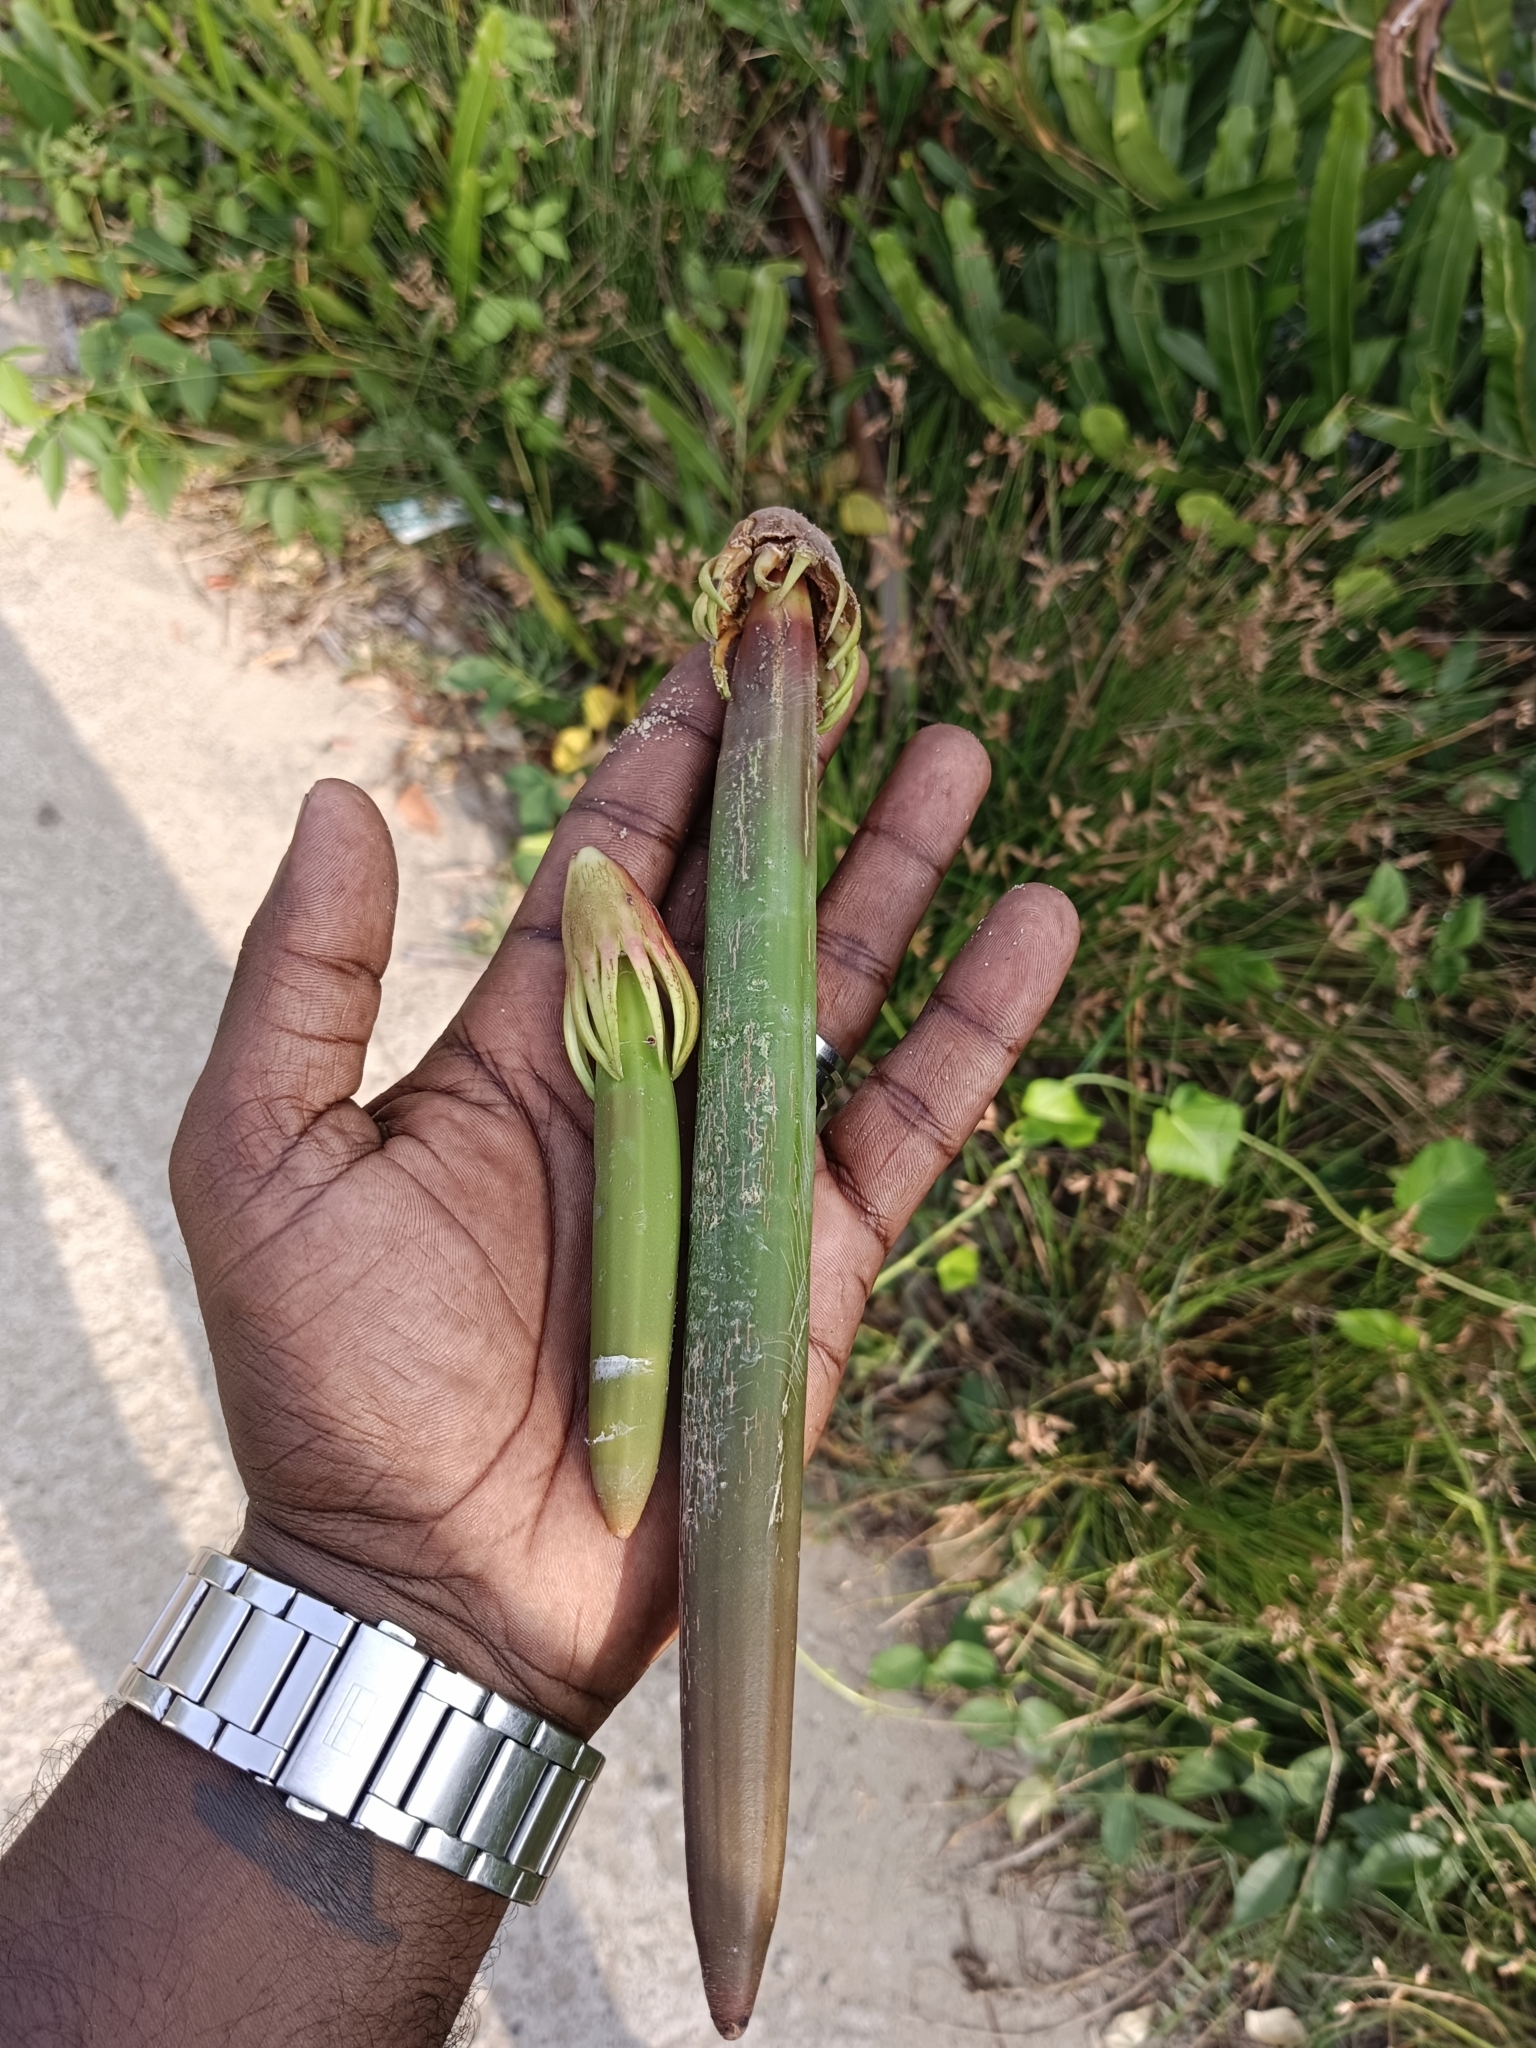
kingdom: Plantae
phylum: Tracheophyta
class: Magnoliopsida
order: Malpighiales
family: Rhizophoraceae
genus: Bruguiera
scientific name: Bruguiera gymnorhiza
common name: Oriental mangrove
